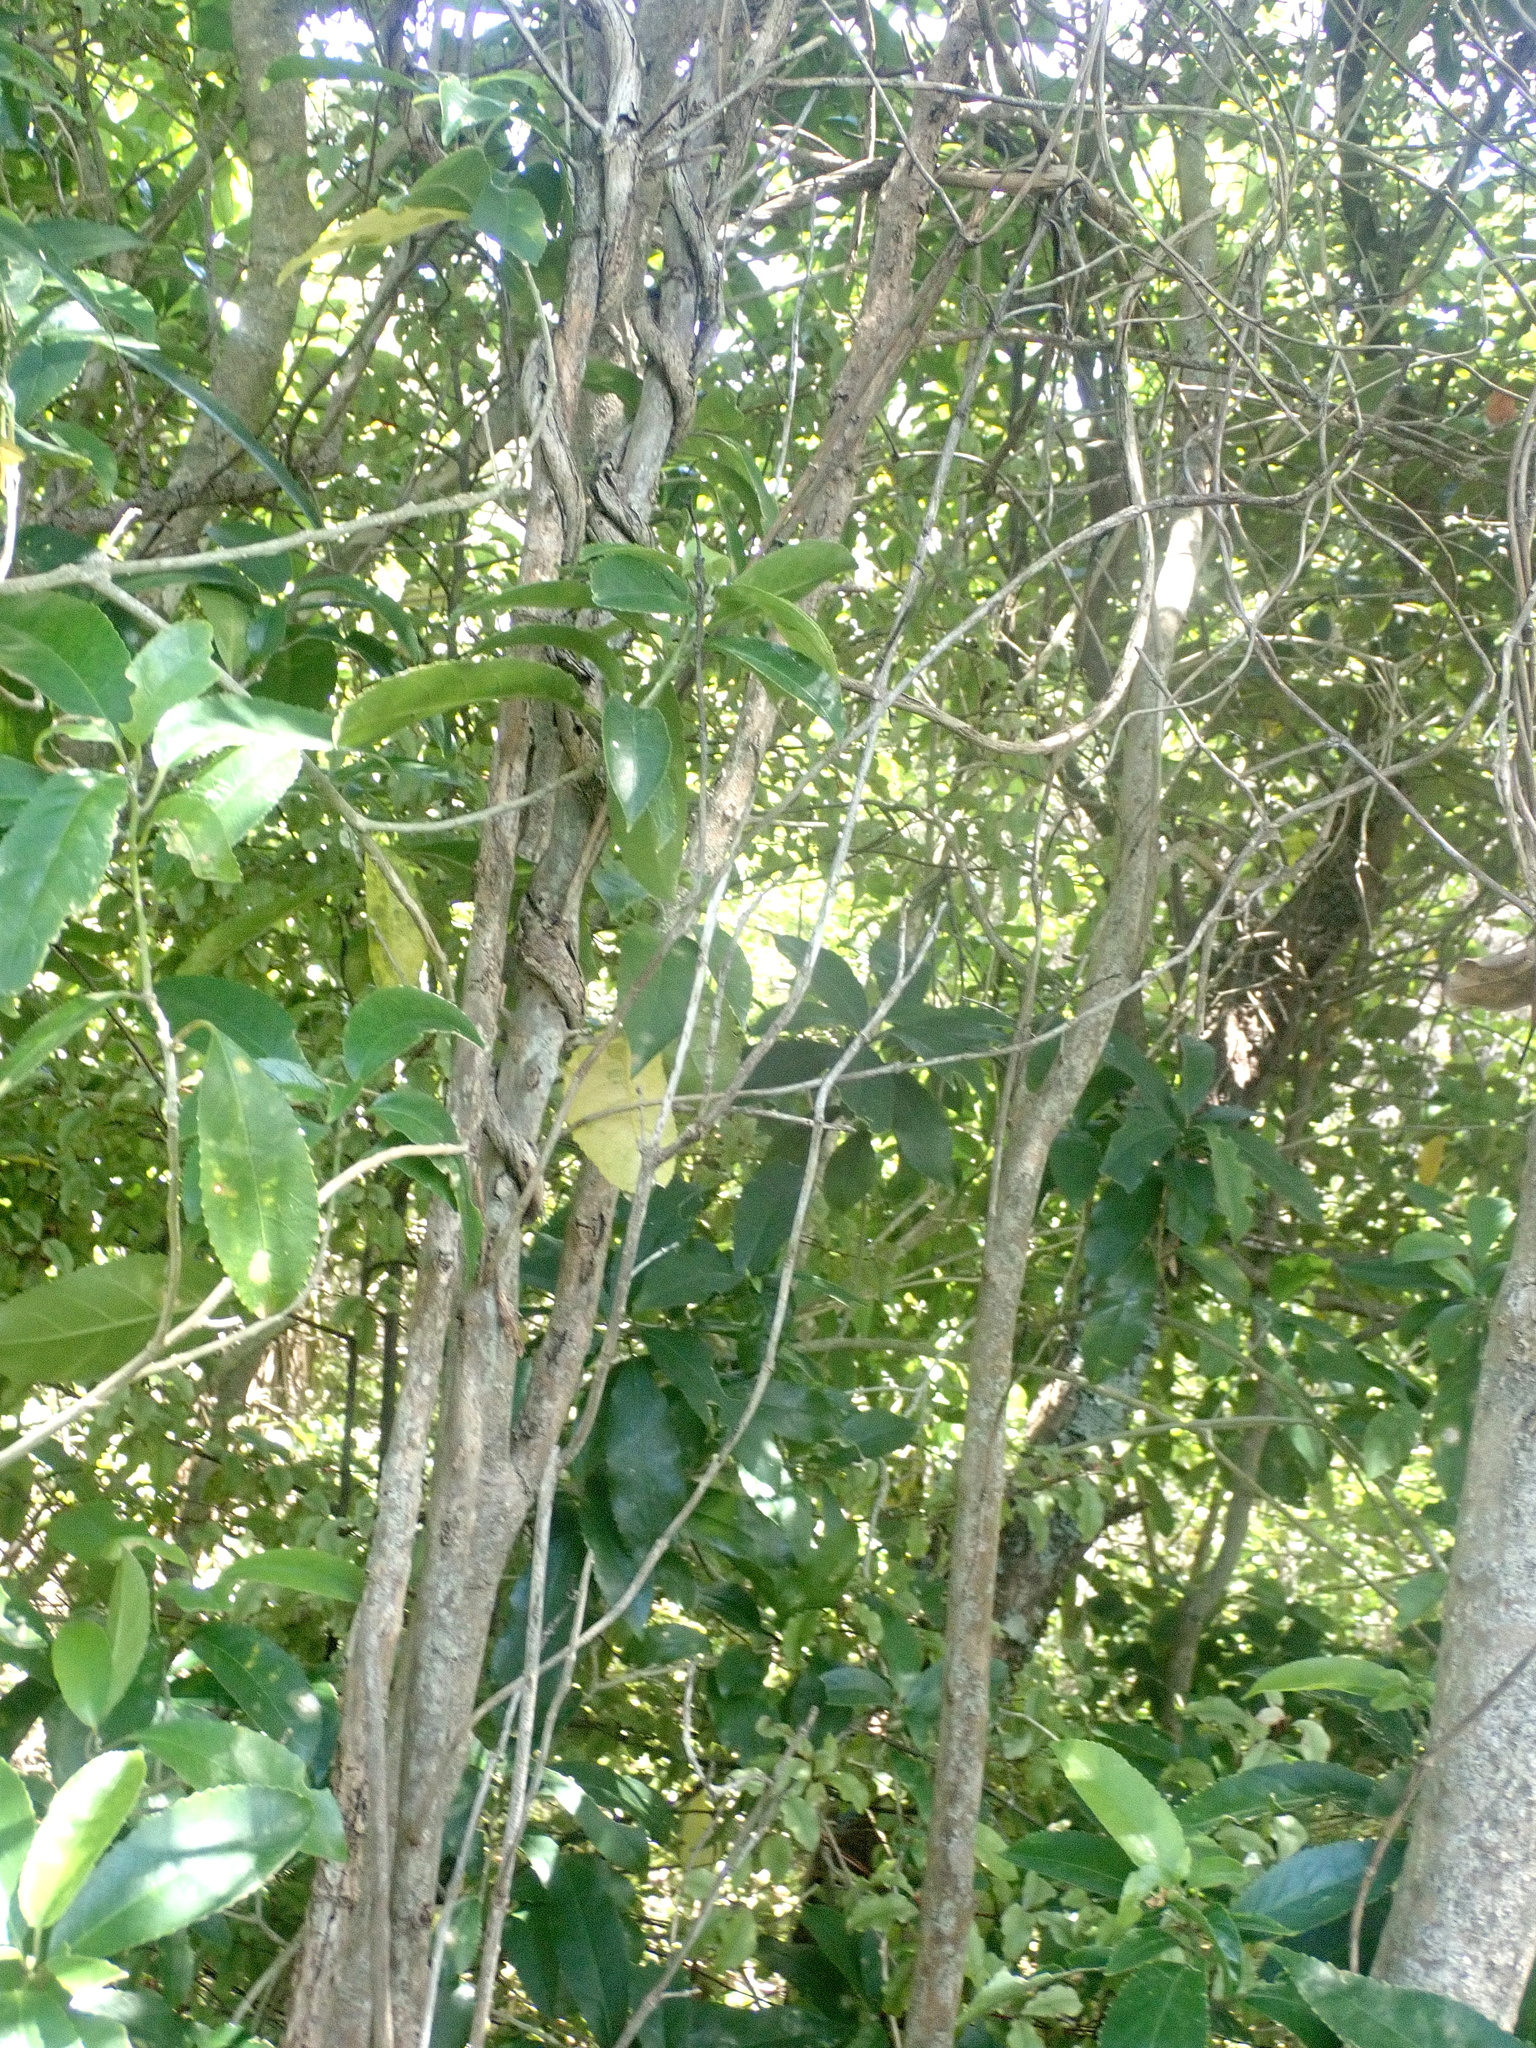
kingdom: Plantae
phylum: Tracheophyta
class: Magnoliopsida
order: Malpighiales
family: Violaceae
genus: Melicytus
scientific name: Melicytus ramiflorus
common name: Mahoe
